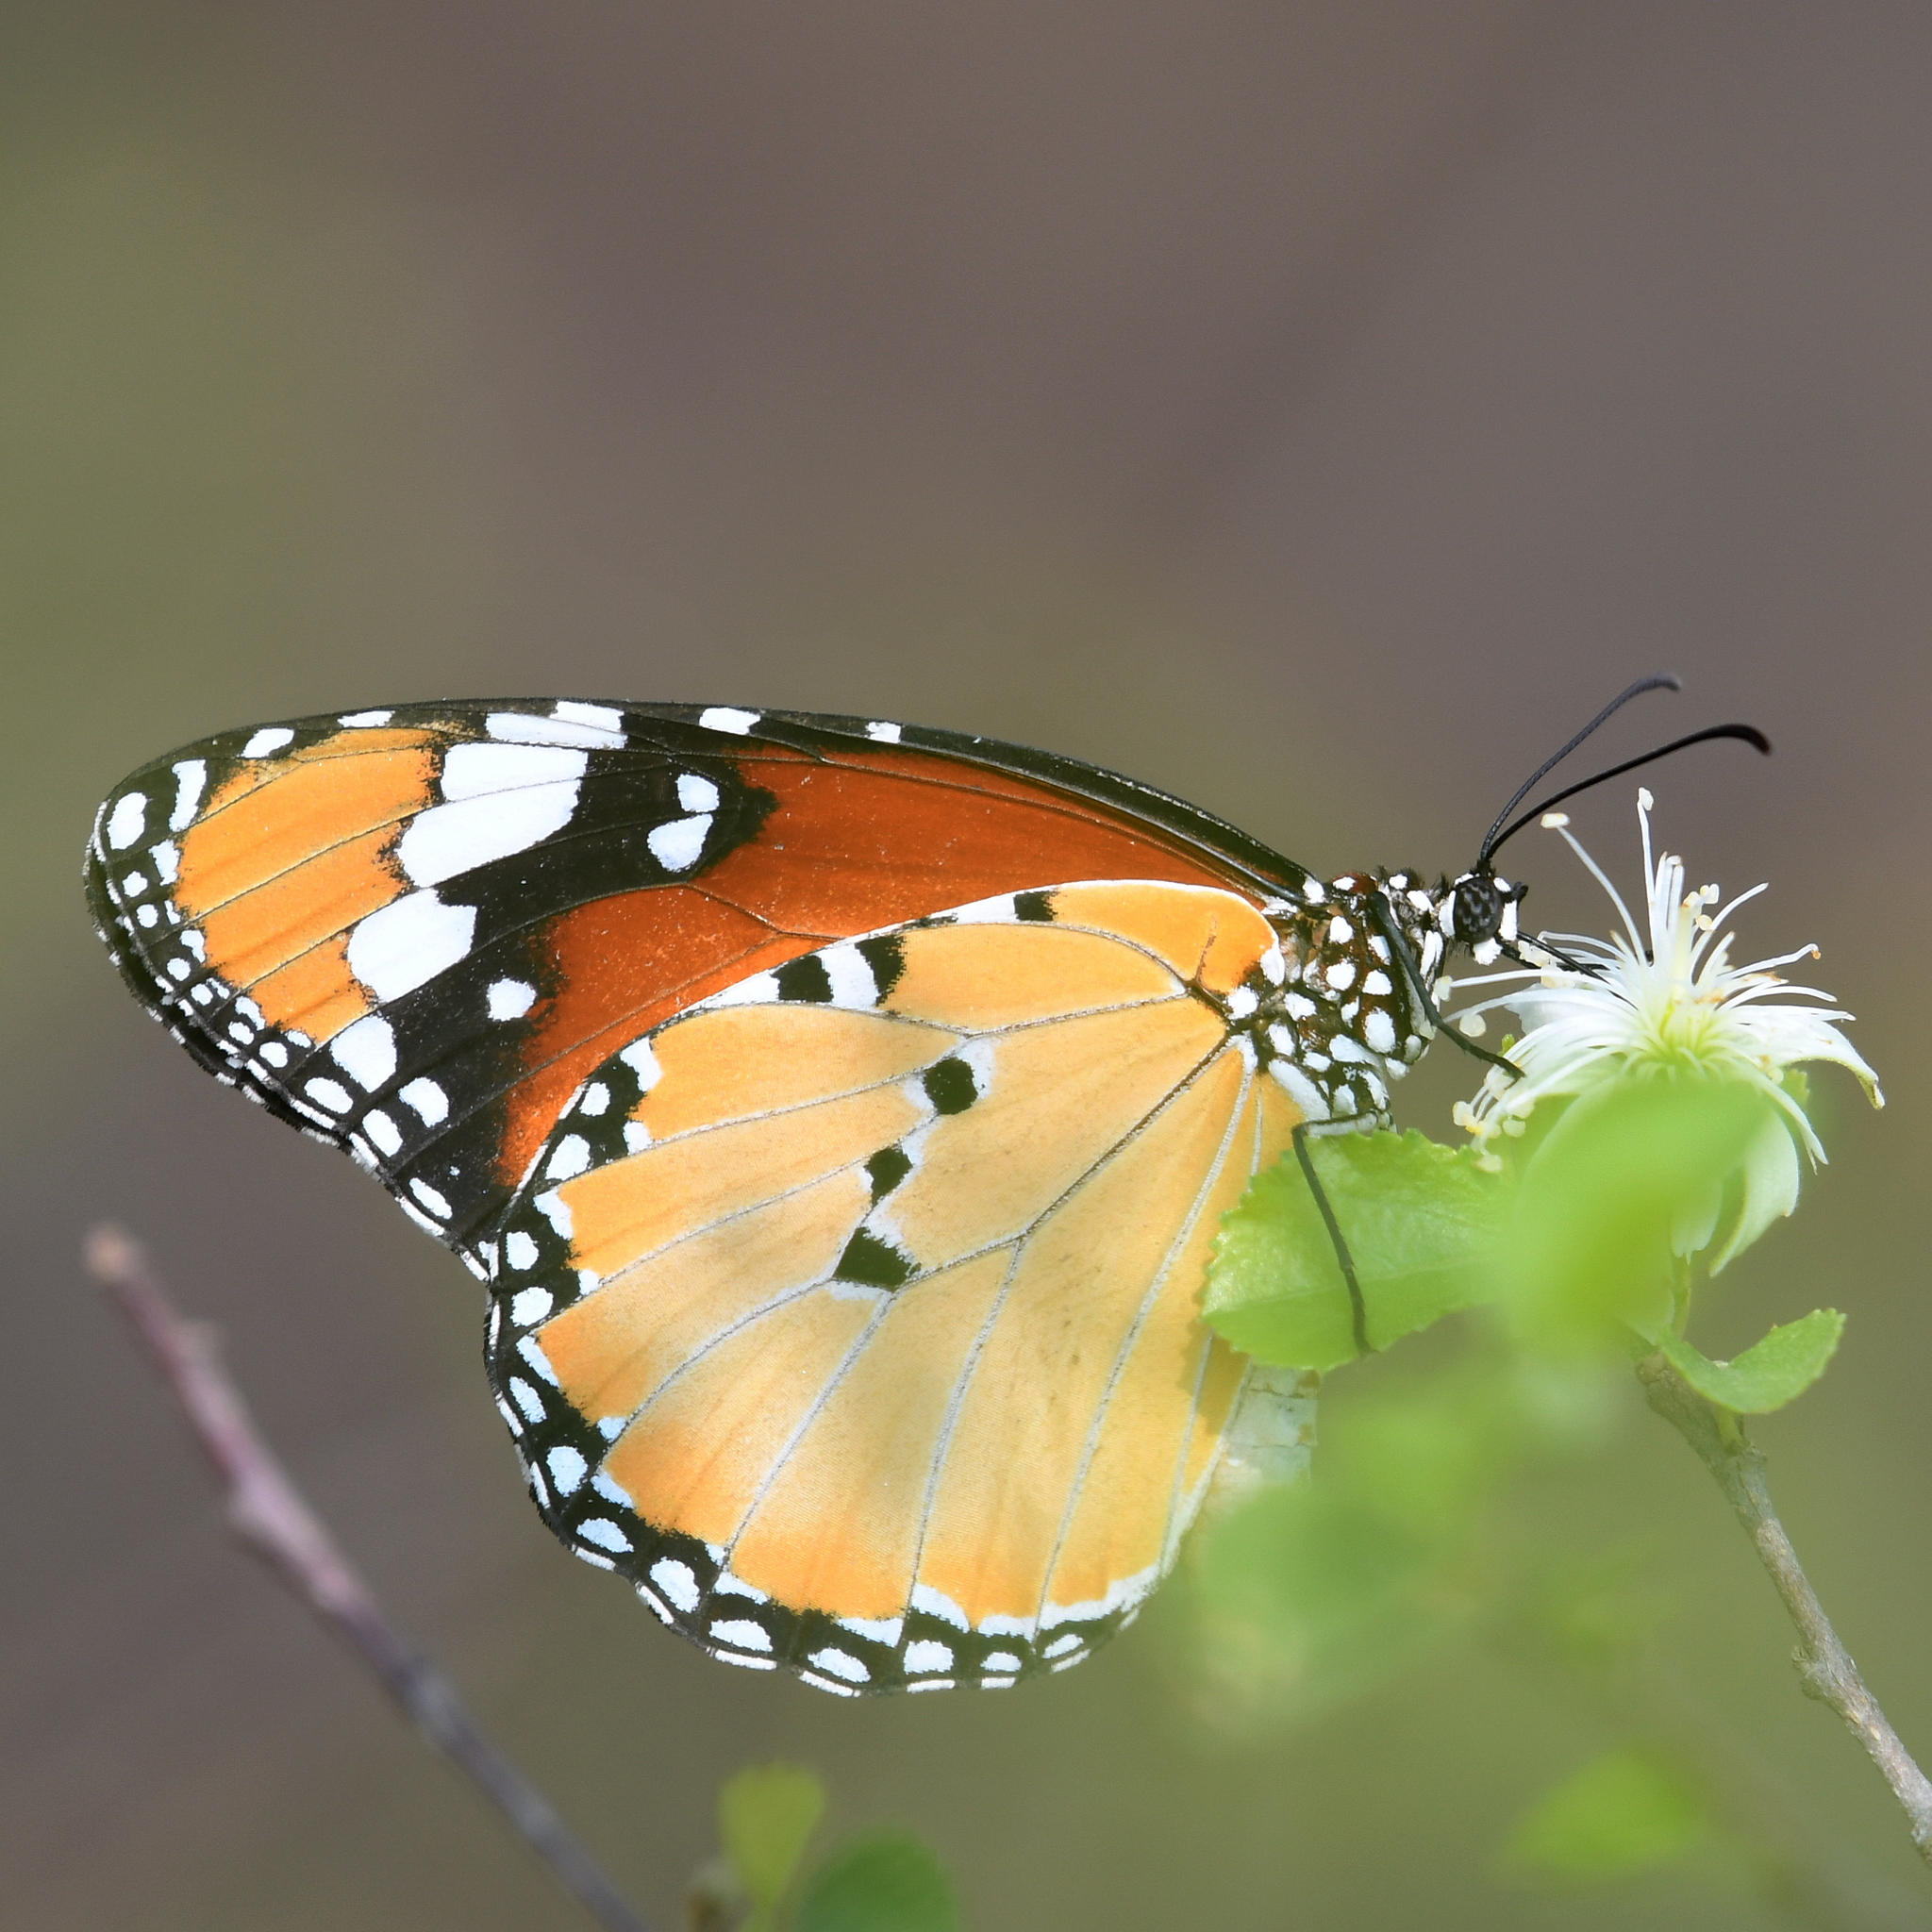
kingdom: Animalia
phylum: Arthropoda
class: Insecta
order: Lepidoptera
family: Nymphalidae
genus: Danaus
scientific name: Danaus chrysippus
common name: Plain tiger
